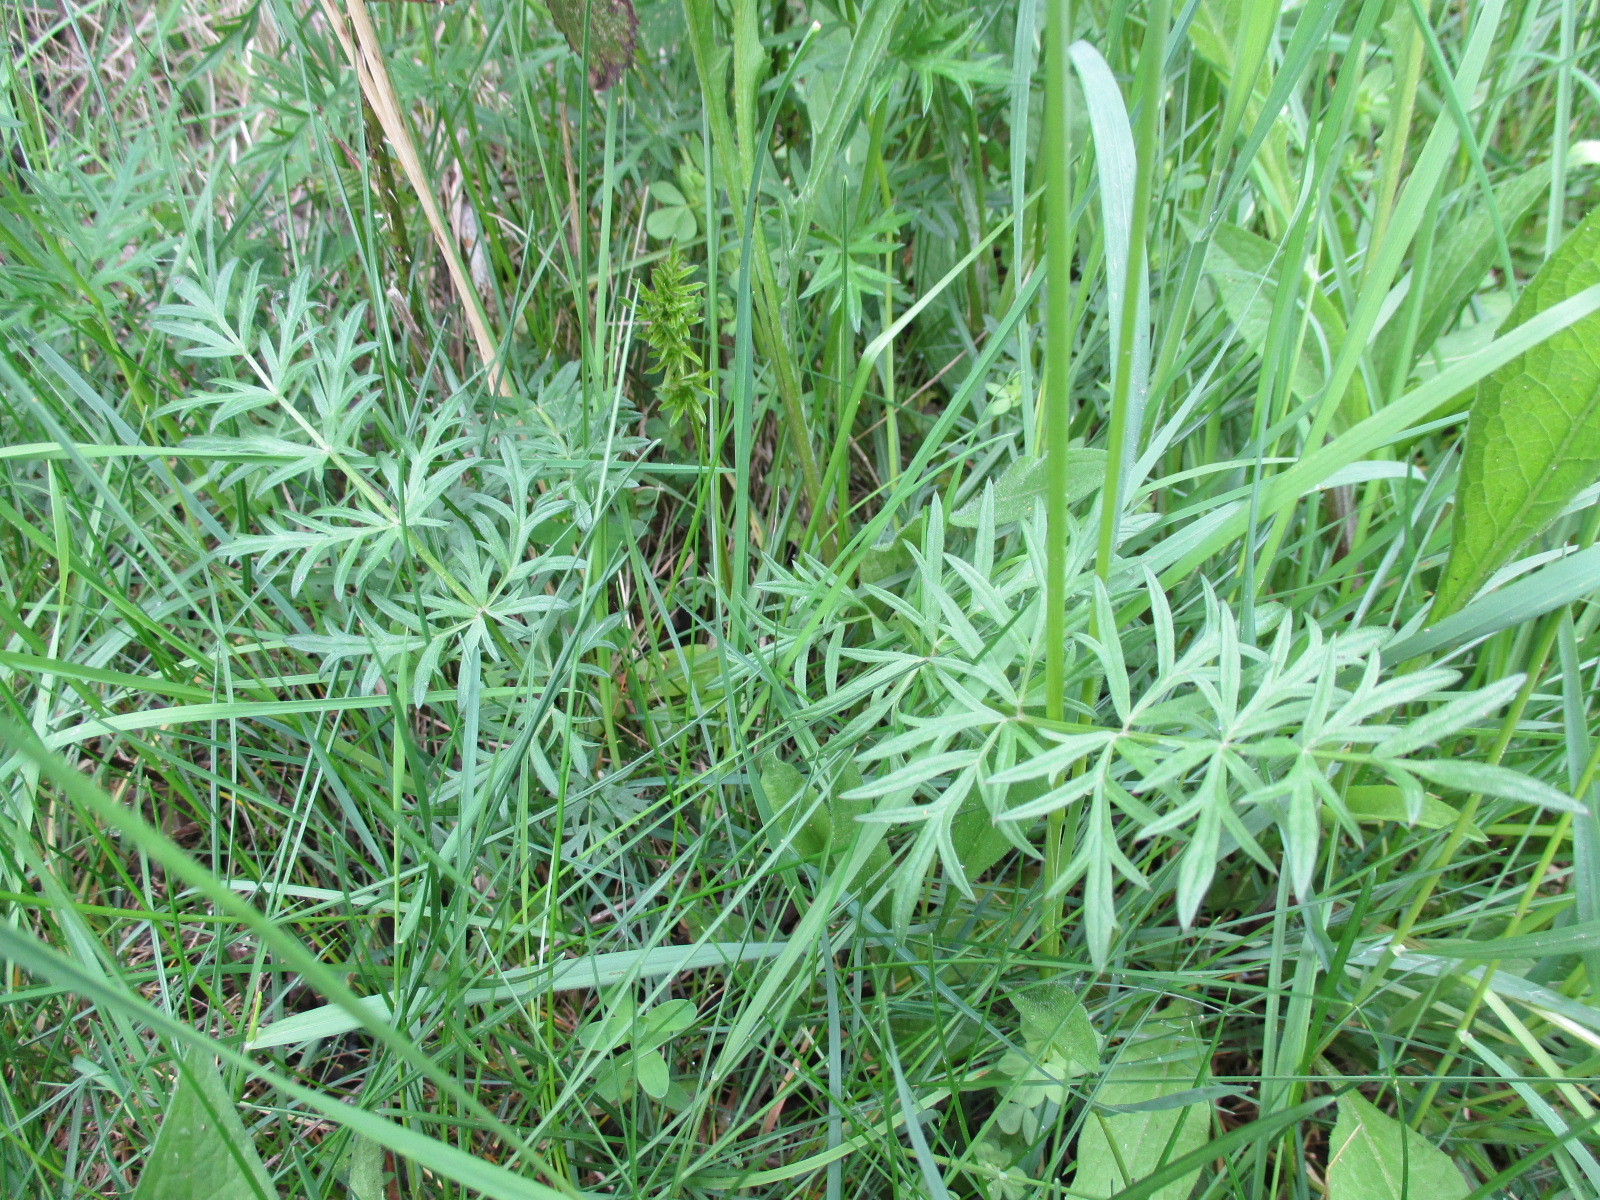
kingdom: Plantae
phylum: Tracheophyta
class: Magnoliopsida
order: Apiales
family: Apiaceae
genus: Pimpinella
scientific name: Pimpinella saxifraga
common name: Burnet-saxifrage
